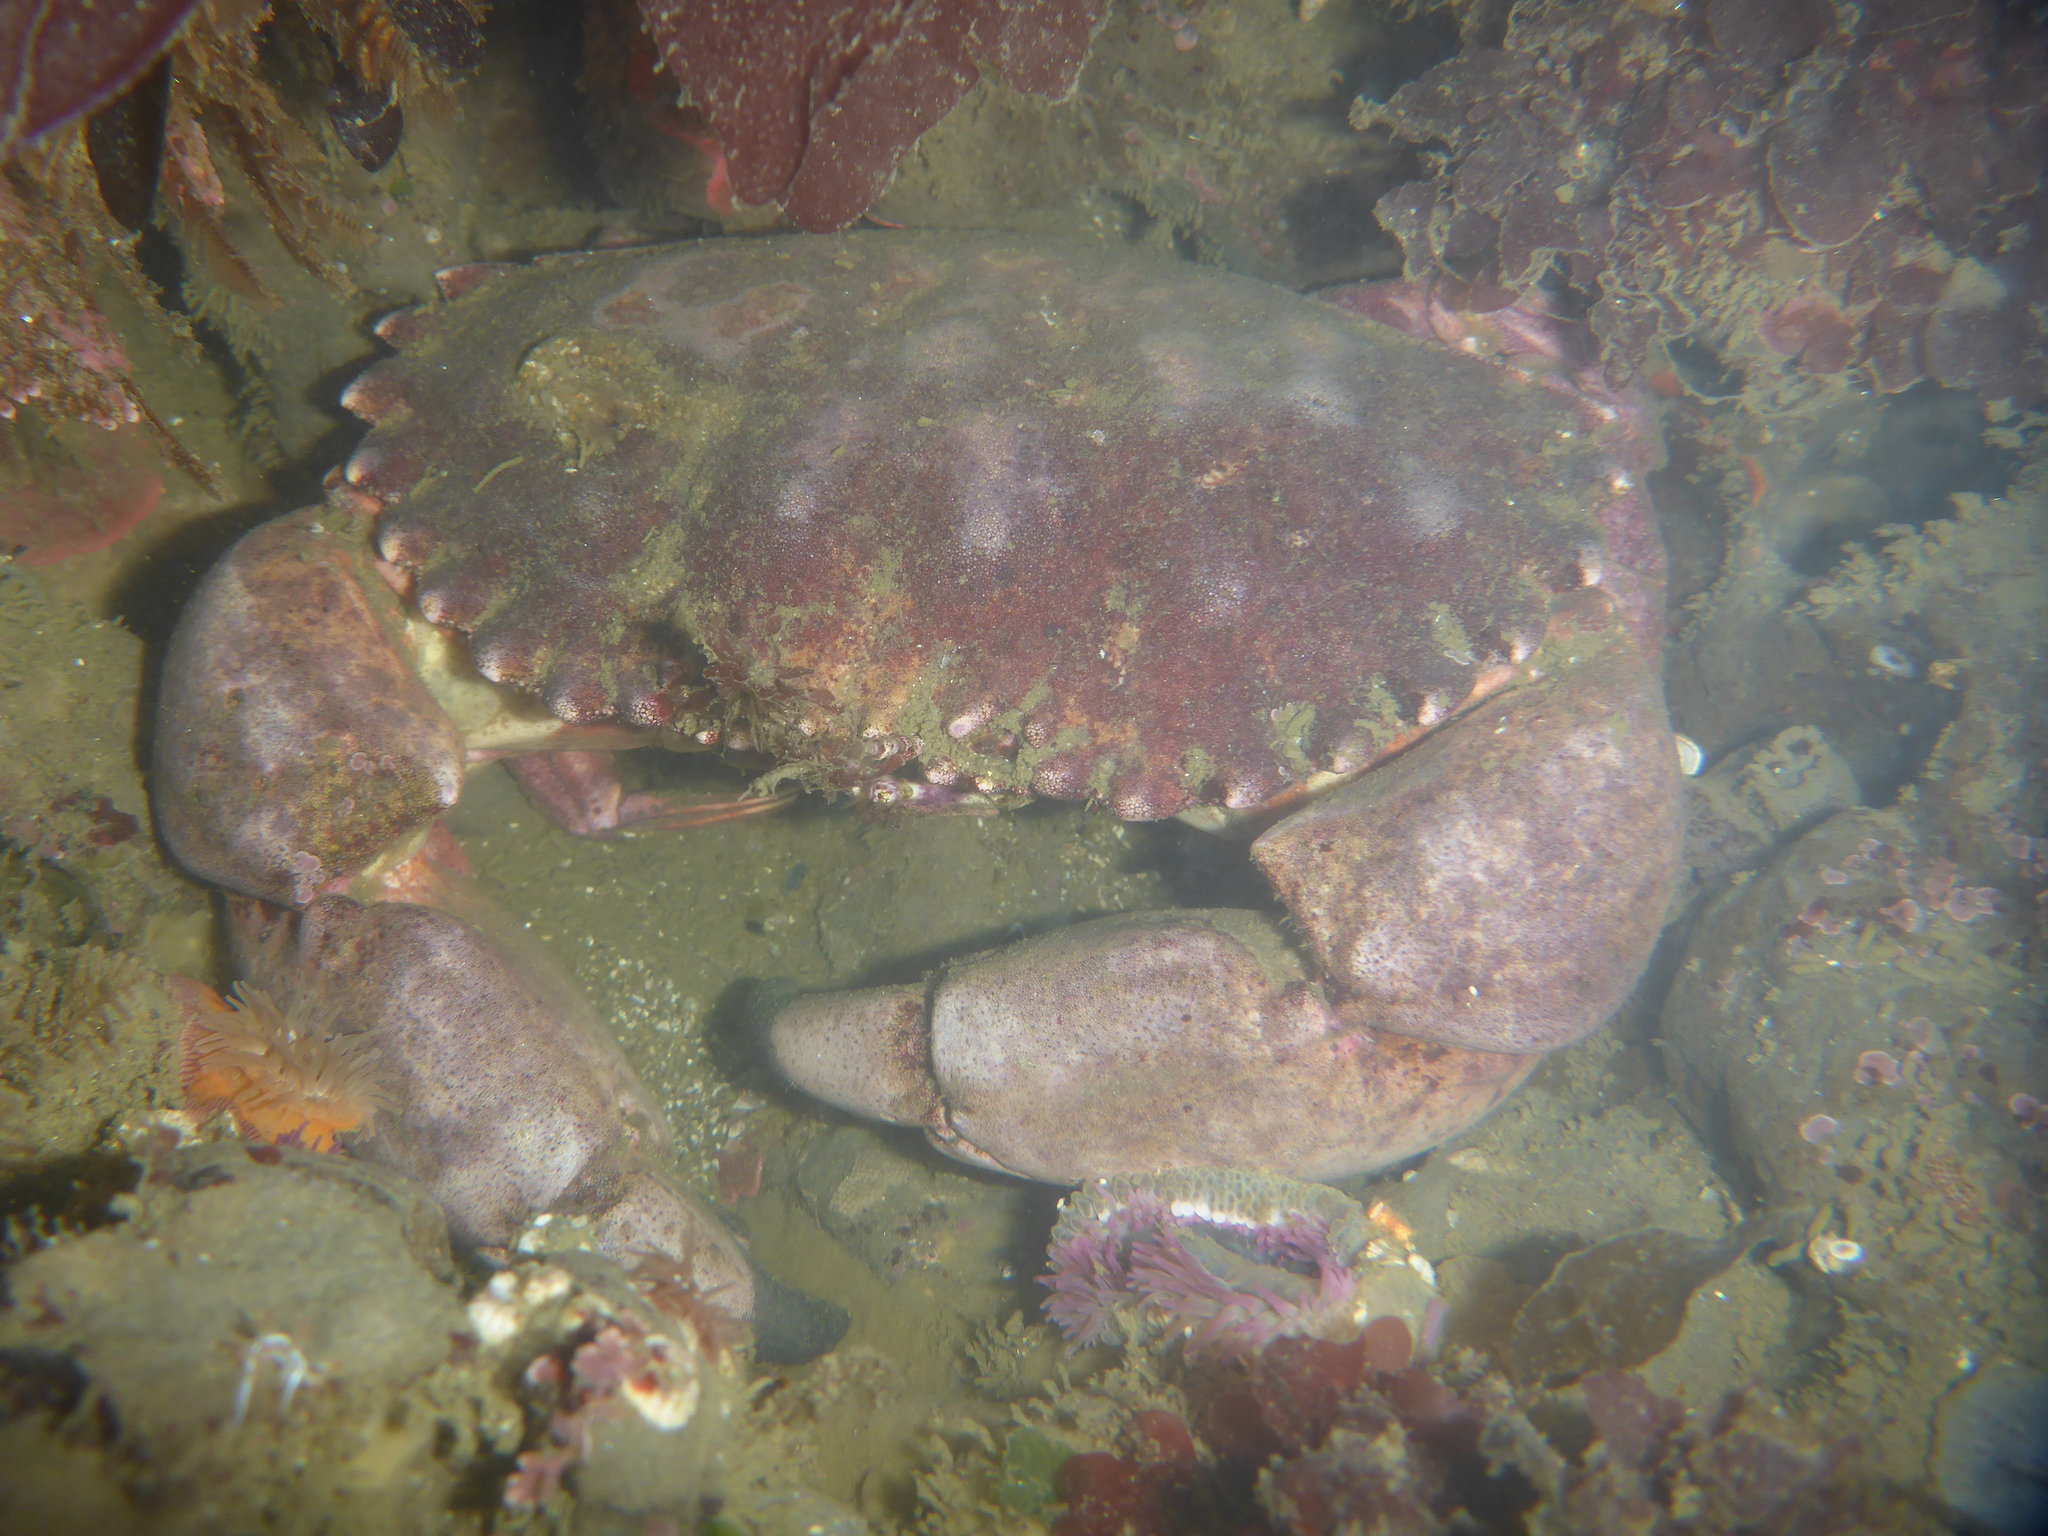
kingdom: Animalia
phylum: Arthropoda
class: Malacostraca
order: Decapoda
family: Cancridae
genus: Romaleon
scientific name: Romaleon antennarium
